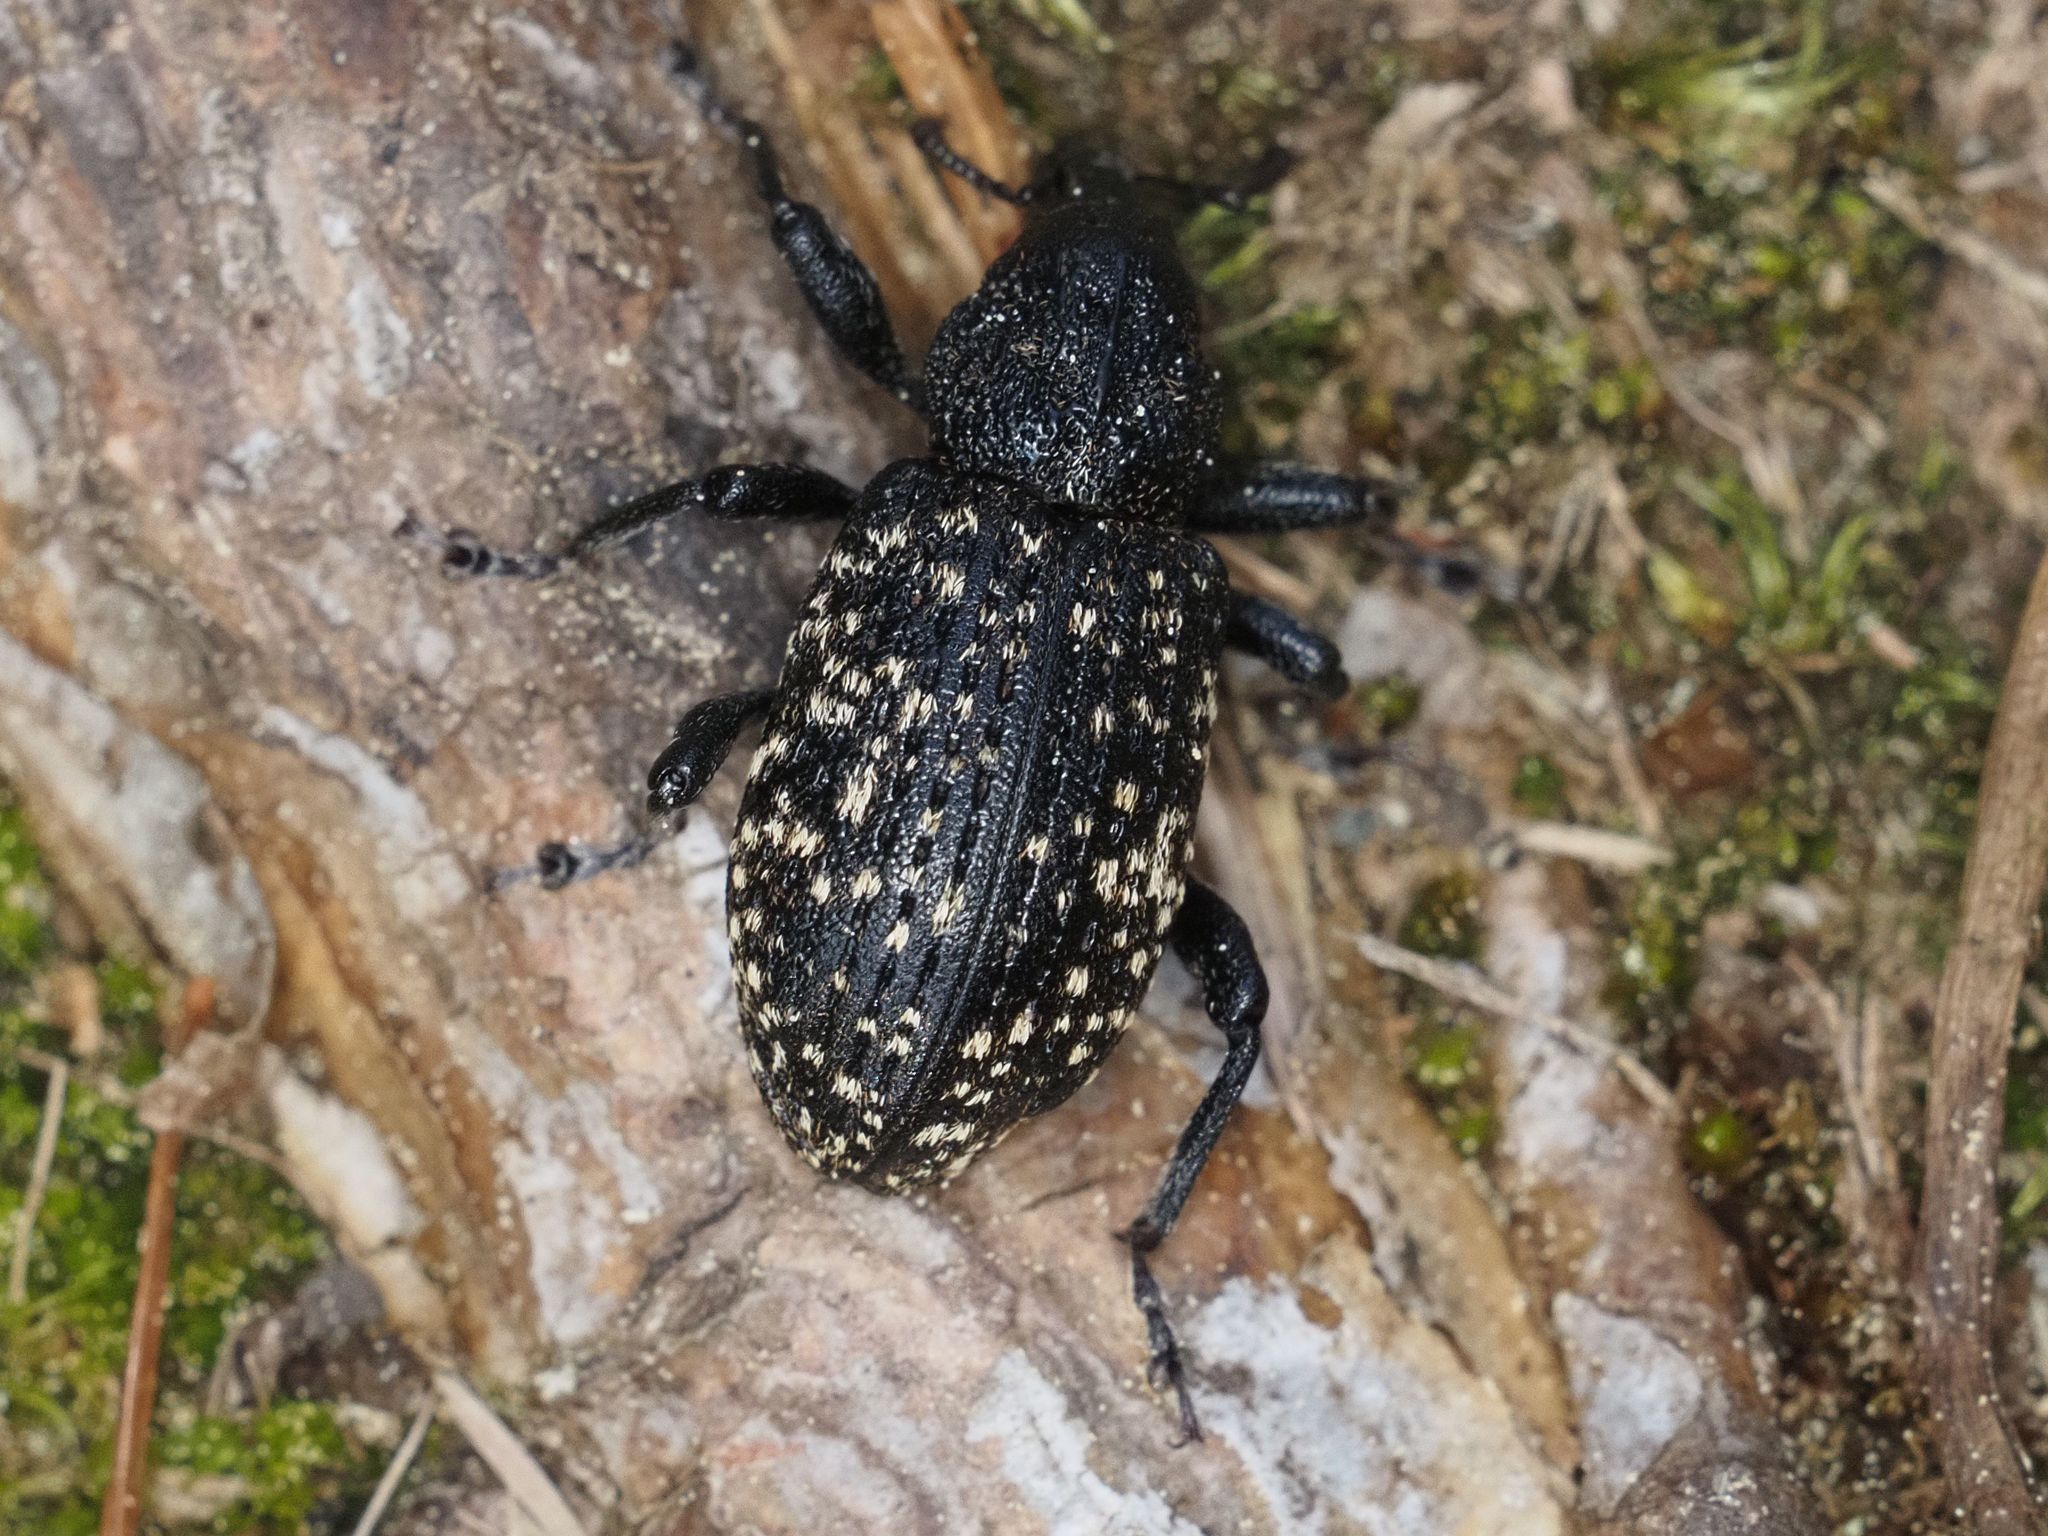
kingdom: Animalia
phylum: Arthropoda
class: Insecta
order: Coleoptera
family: Curculionidae
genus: Hylobius
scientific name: Hylobius excavatus
